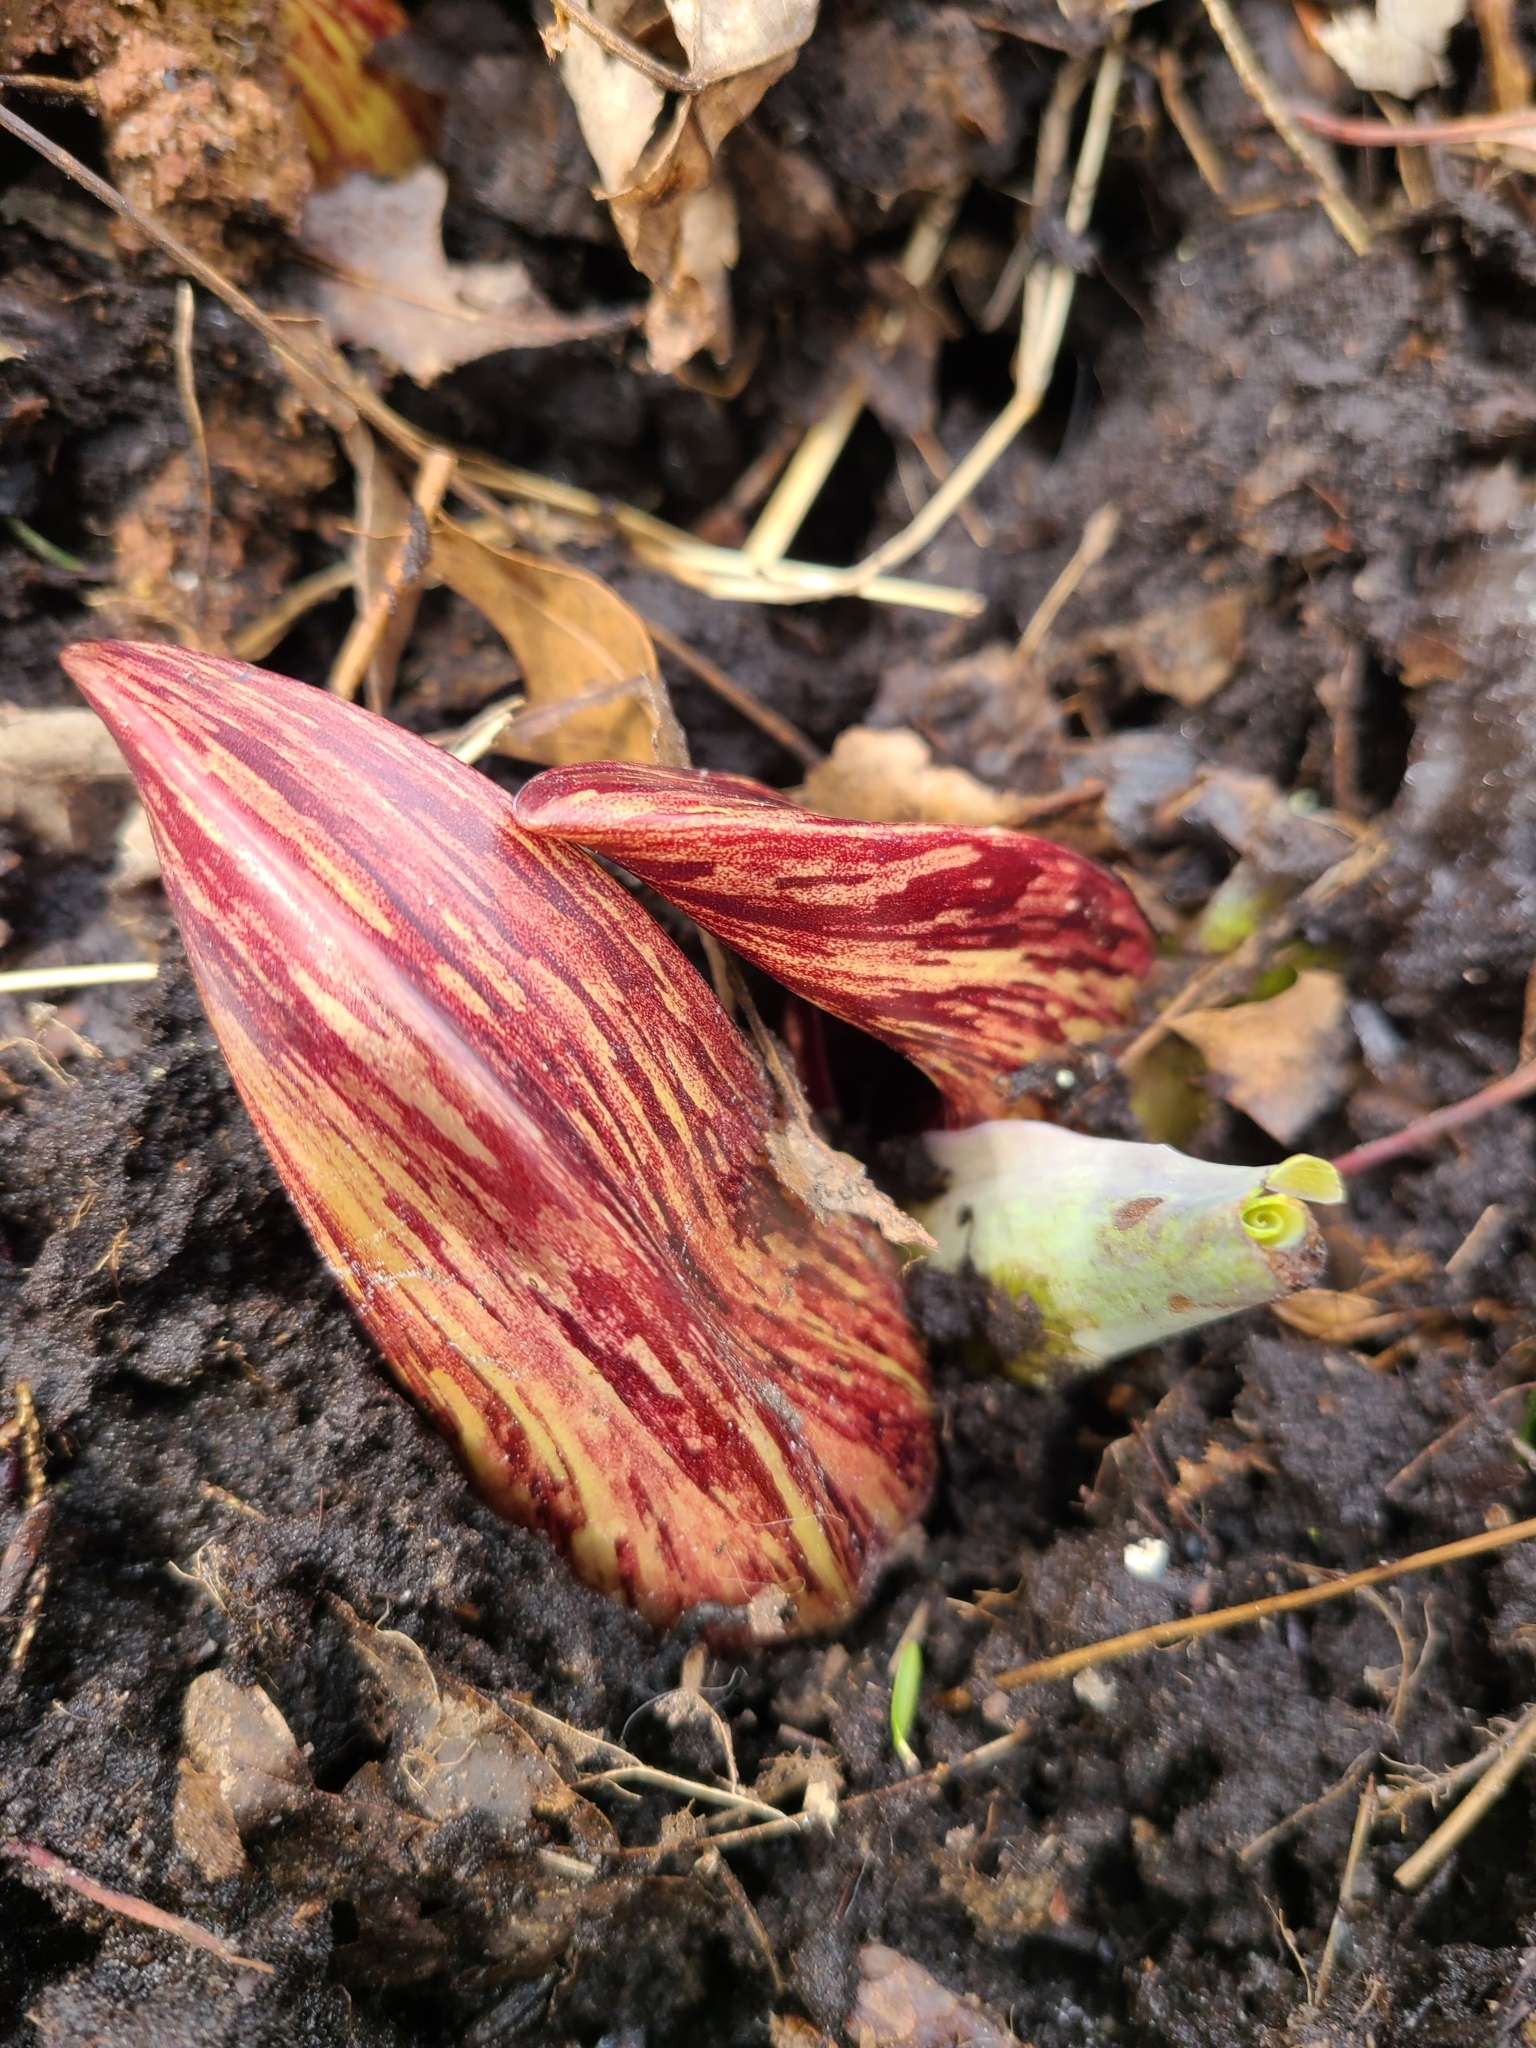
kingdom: Plantae
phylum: Tracheophyta
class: Liliopsida
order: Alismatales
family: Araceae
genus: Symplocarpus
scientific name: Symplocarpus foetidus
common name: Eastern skunk cabbage
